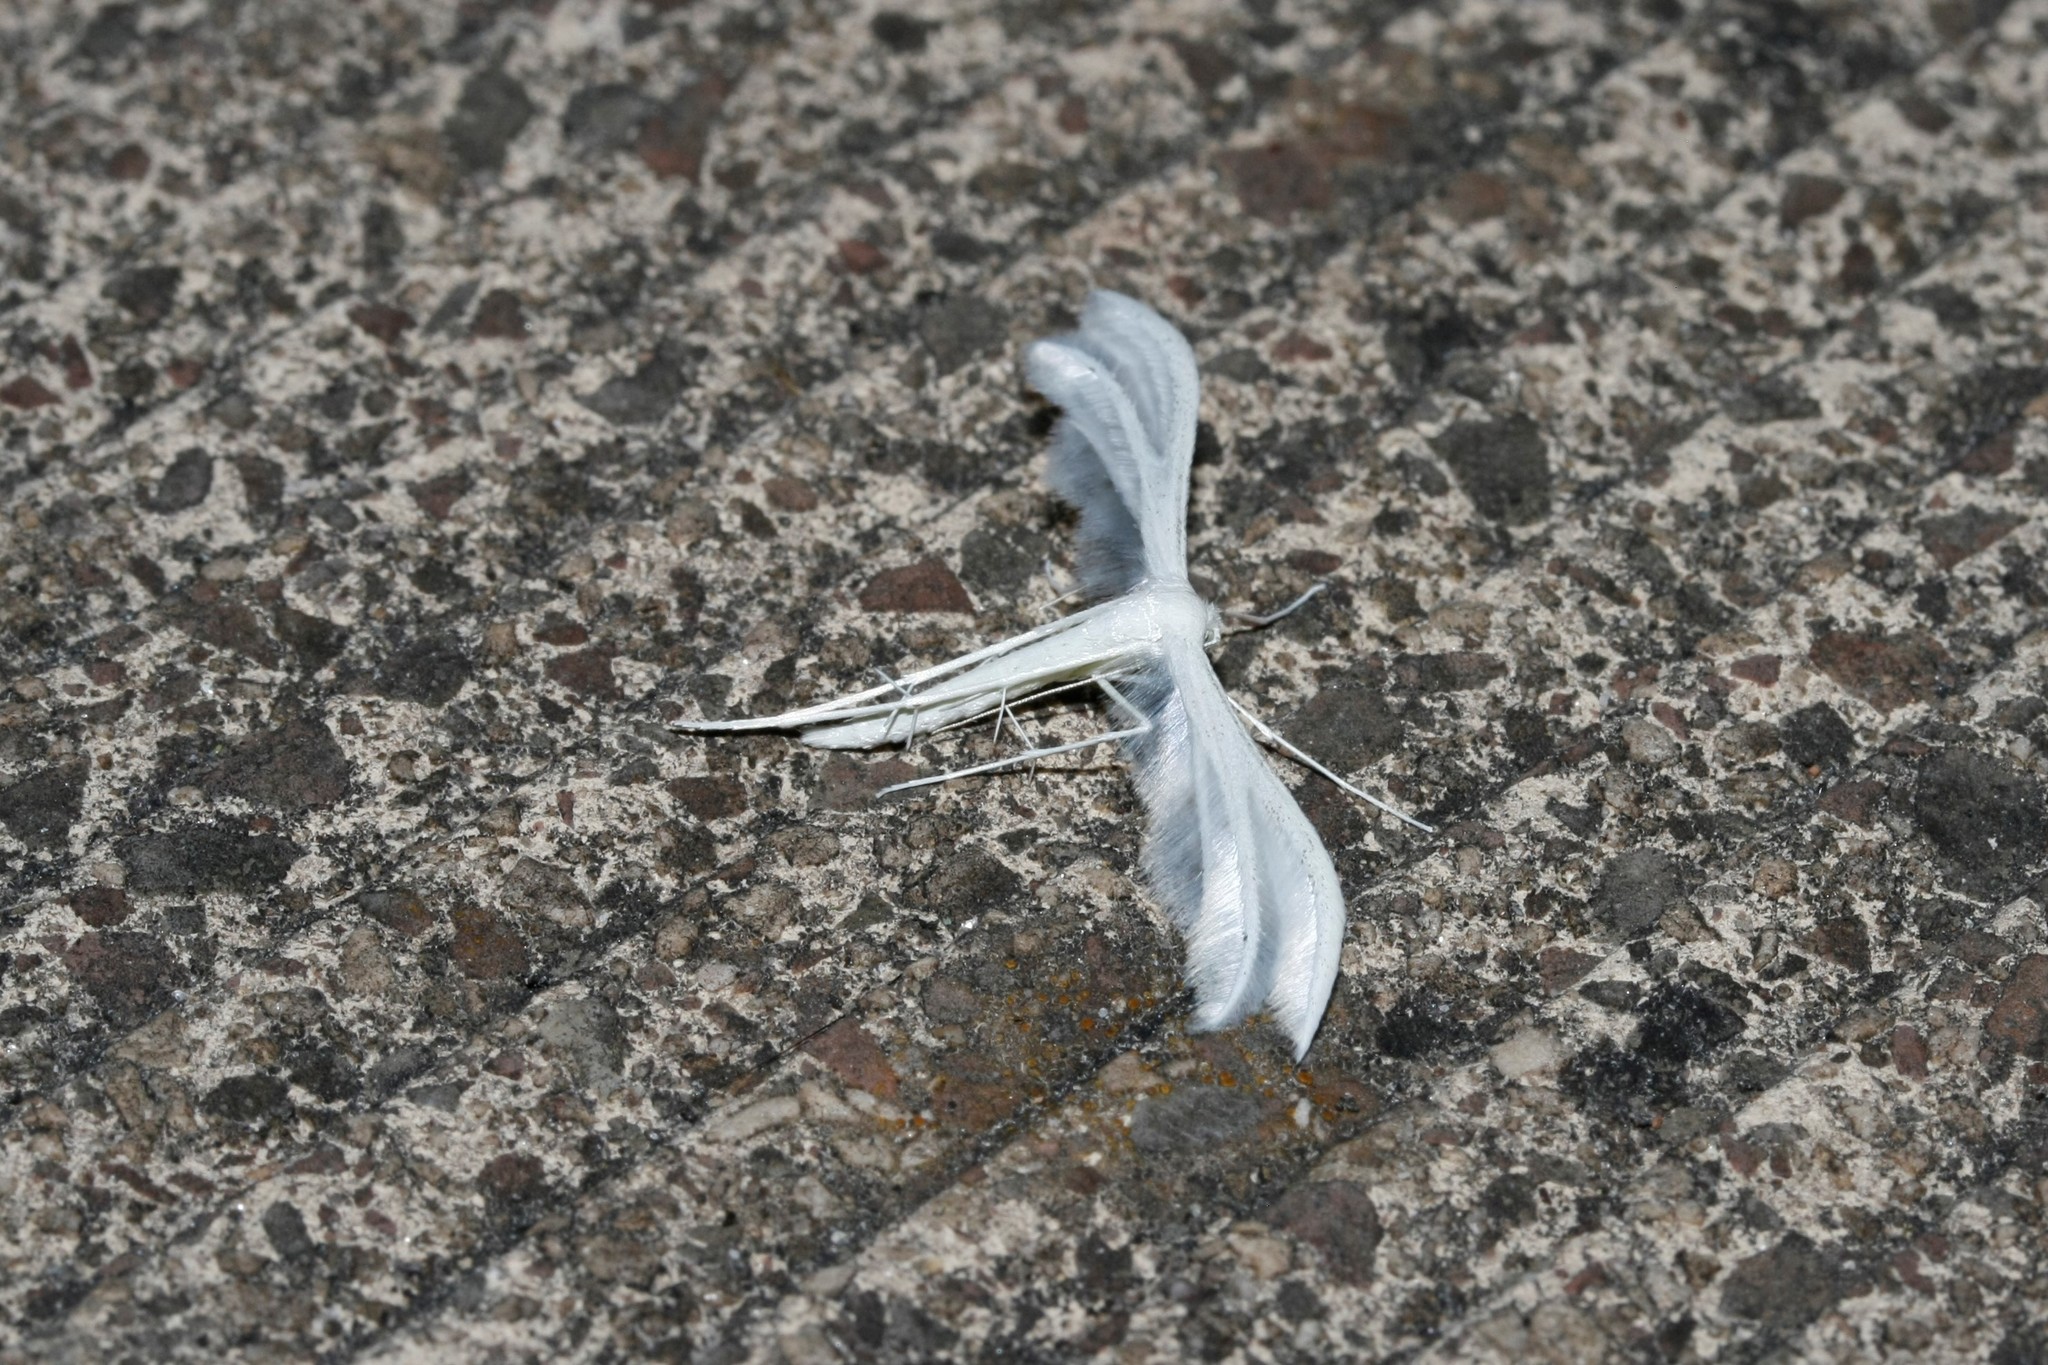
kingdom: Animalia
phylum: Arthropoda
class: Insecta
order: Lepidoptera
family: Pterophoridae
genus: Pterophorus
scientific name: Pterophorus pentadactyla
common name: White plume moth
